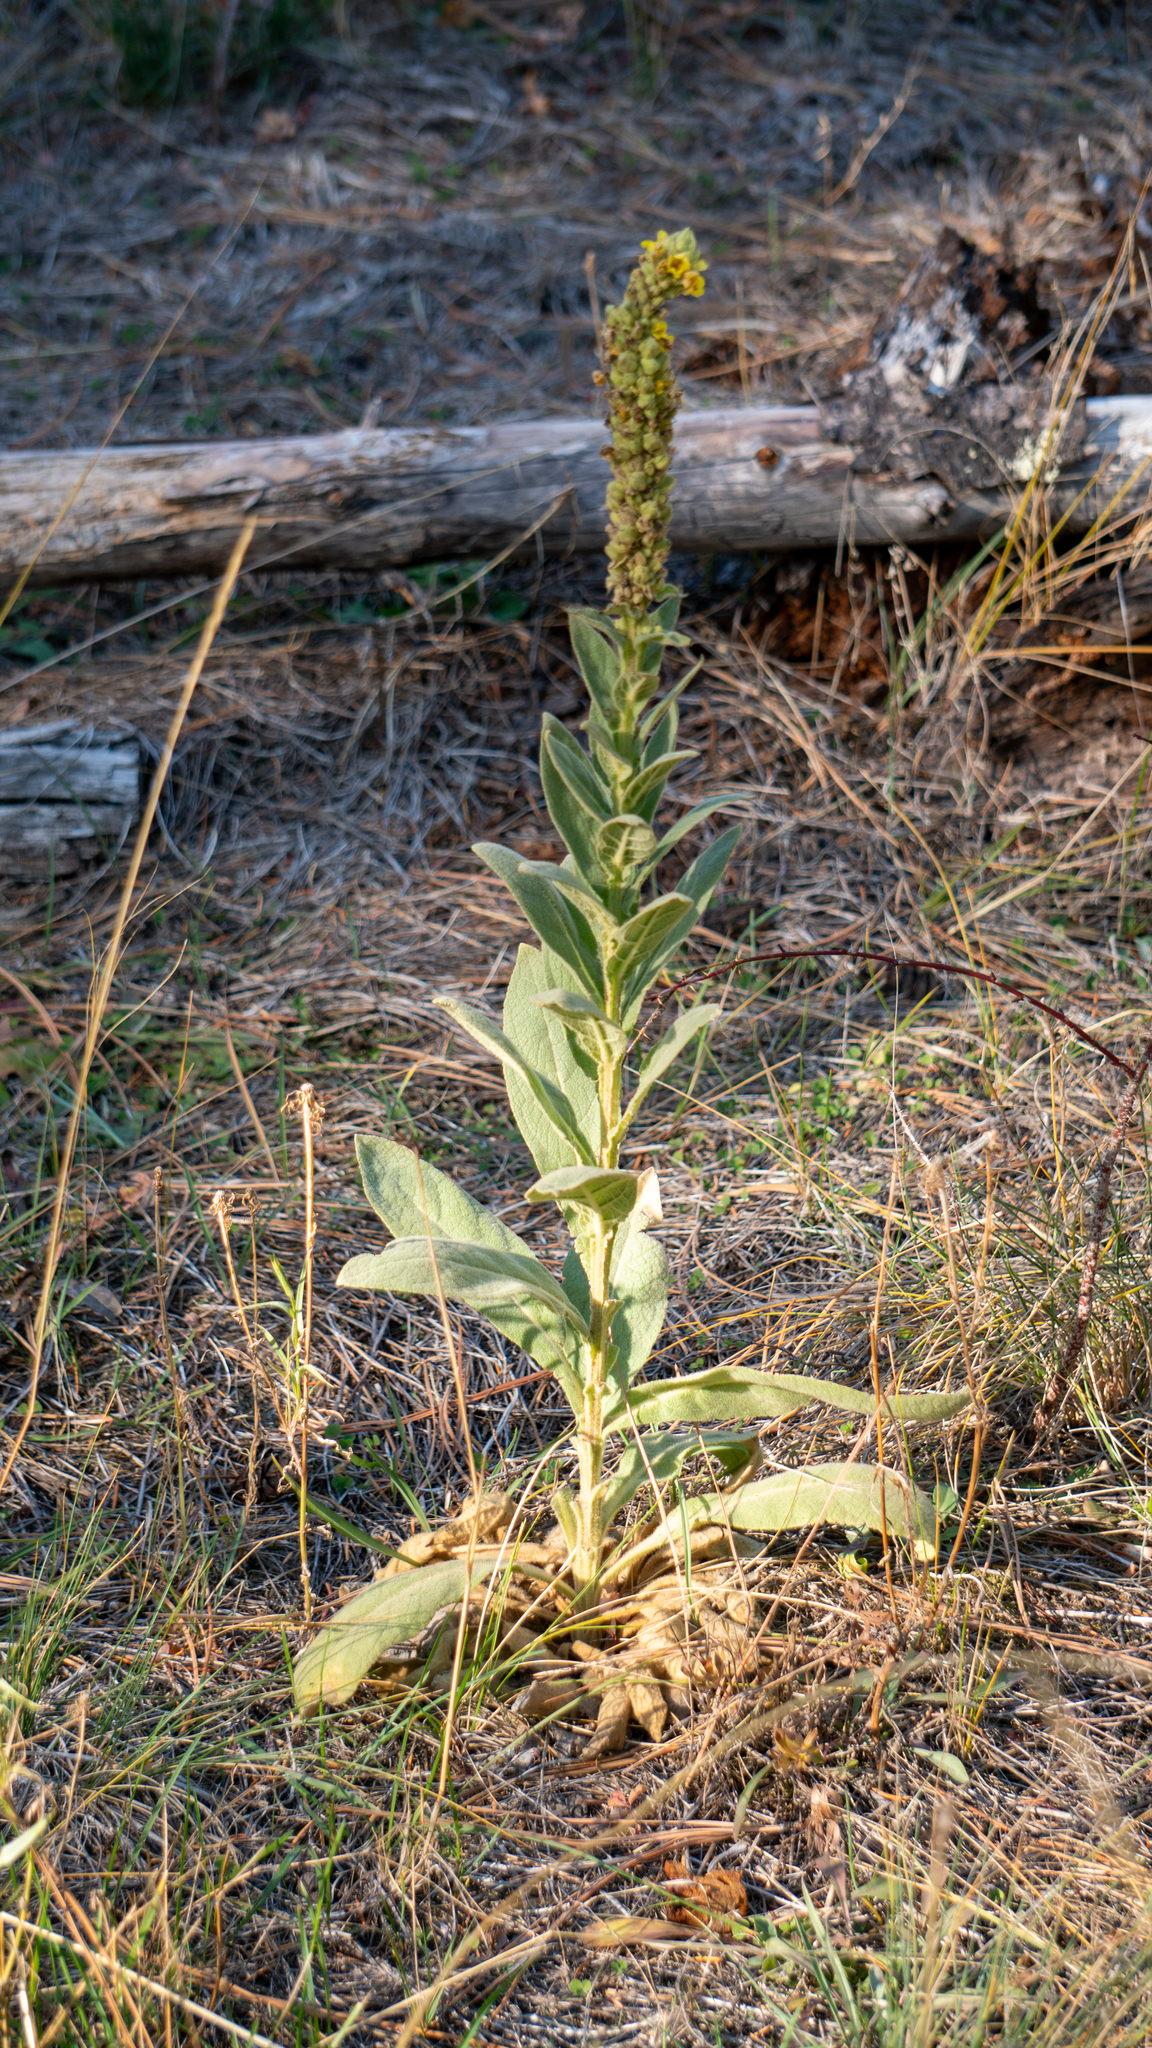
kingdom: Plantae
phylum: Tracheophyta
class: Magnoliopsida
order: Lamiales
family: Scrophulariaceae
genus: Verbascum
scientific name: Verbascum thapsus
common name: Common mullein
